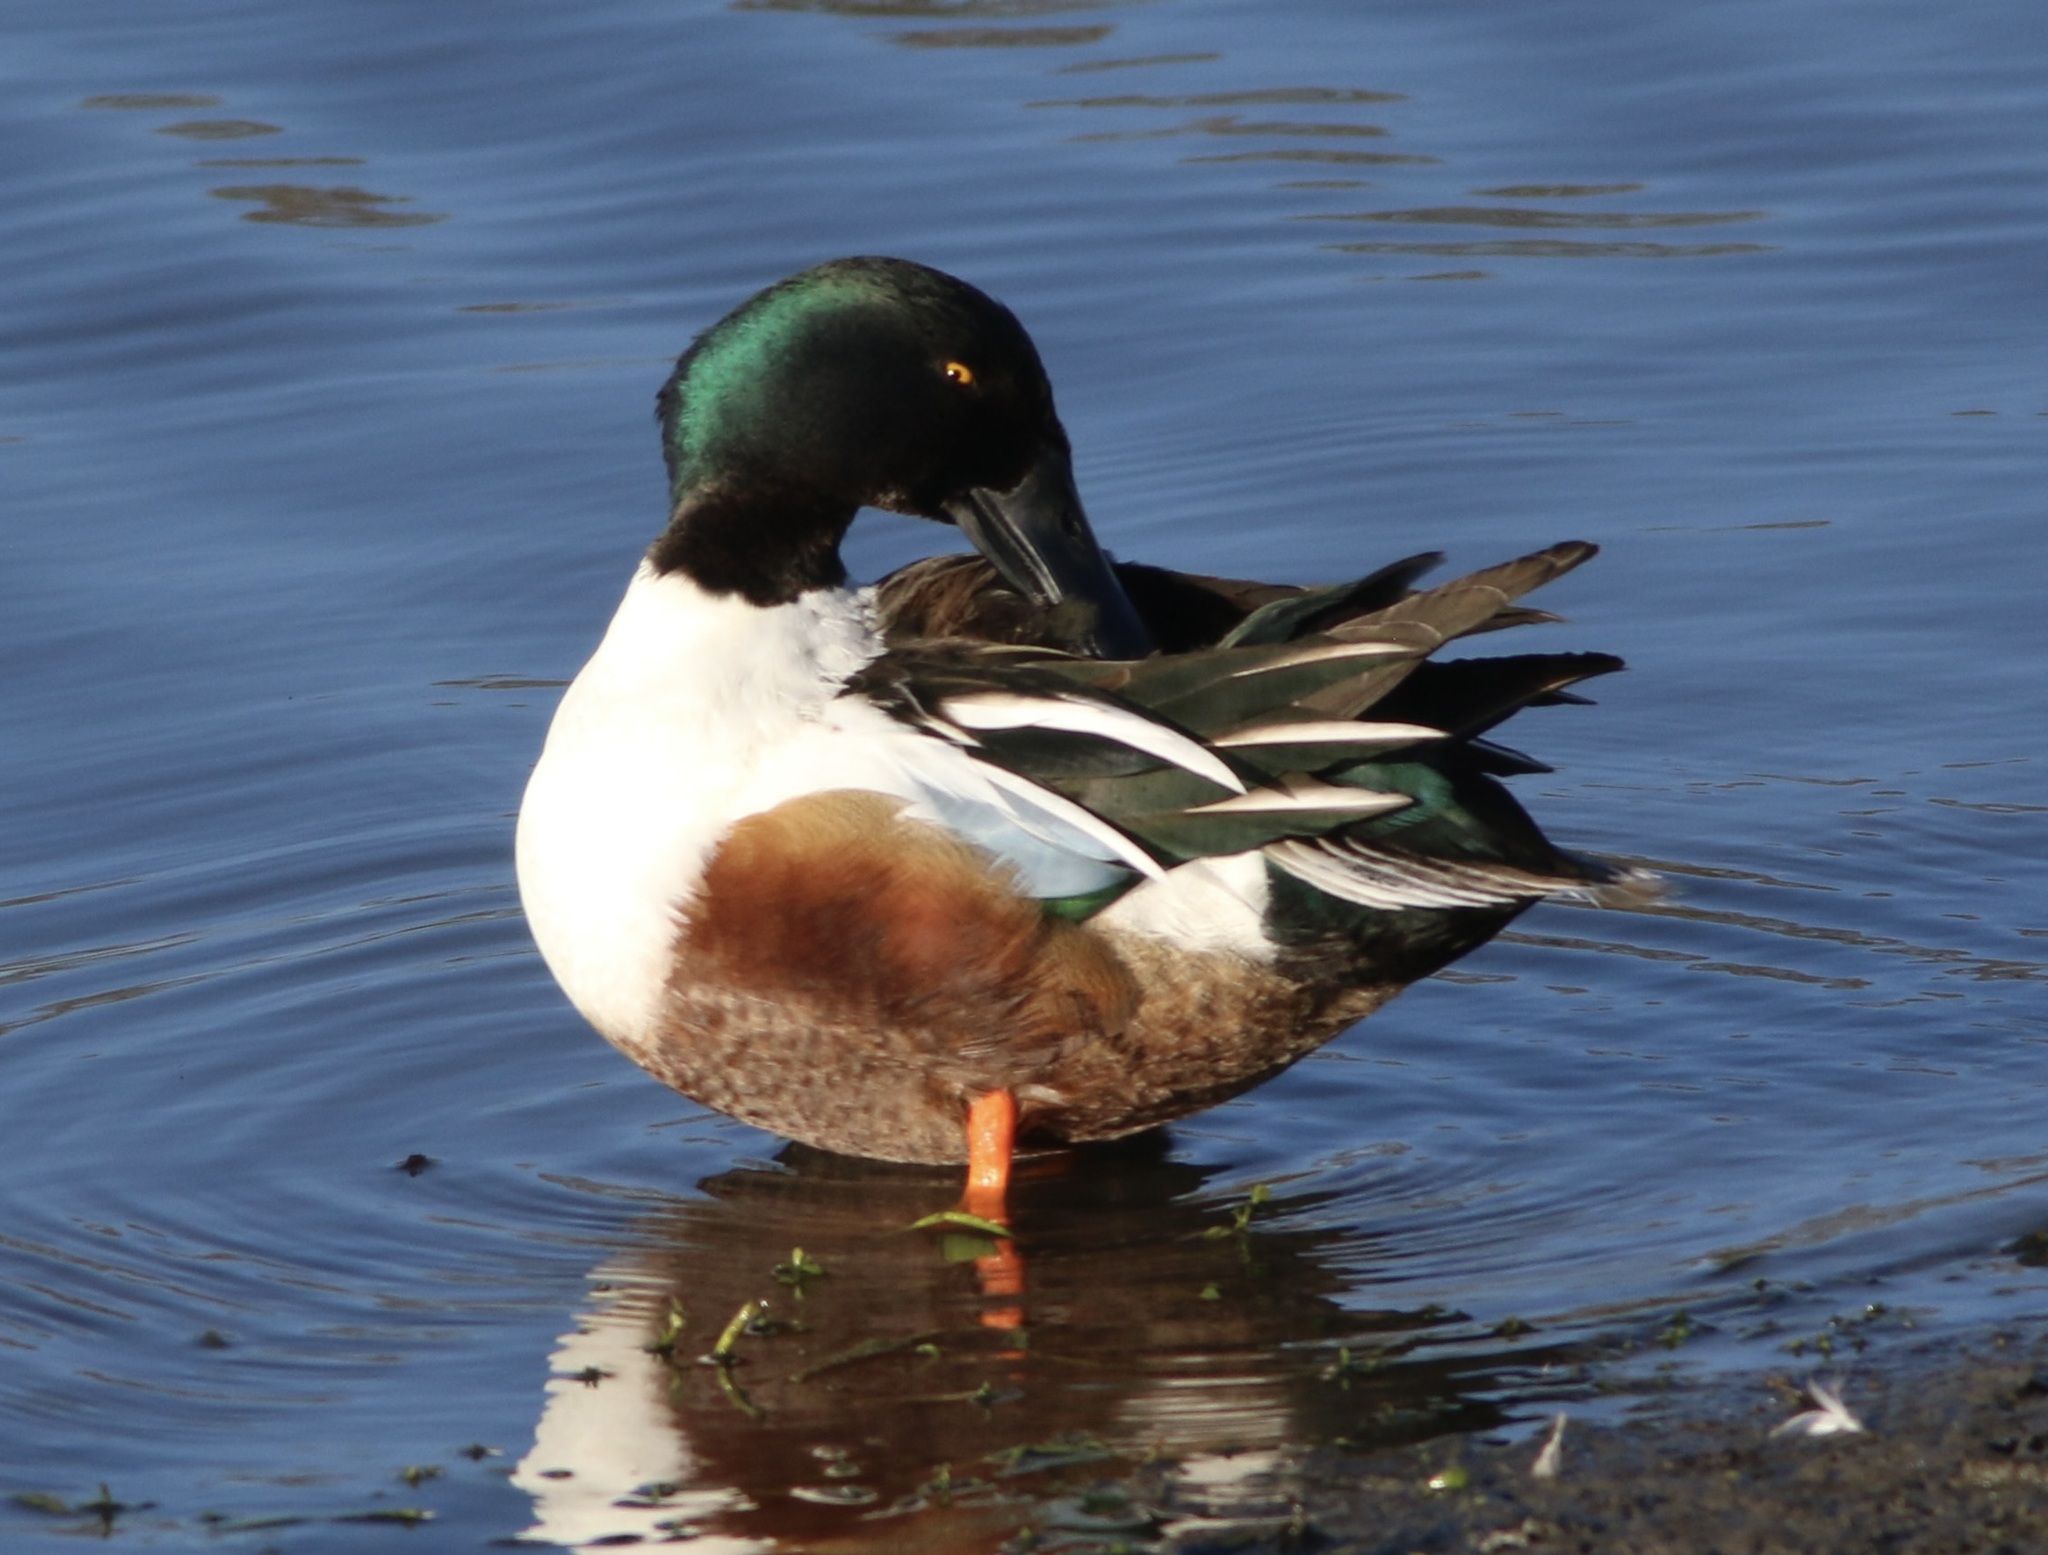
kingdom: Animalia
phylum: Chordata
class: Aves
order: Anseriformes
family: Anatidae
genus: Spatula
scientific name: Spatula clypeata
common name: Northern shoveler
